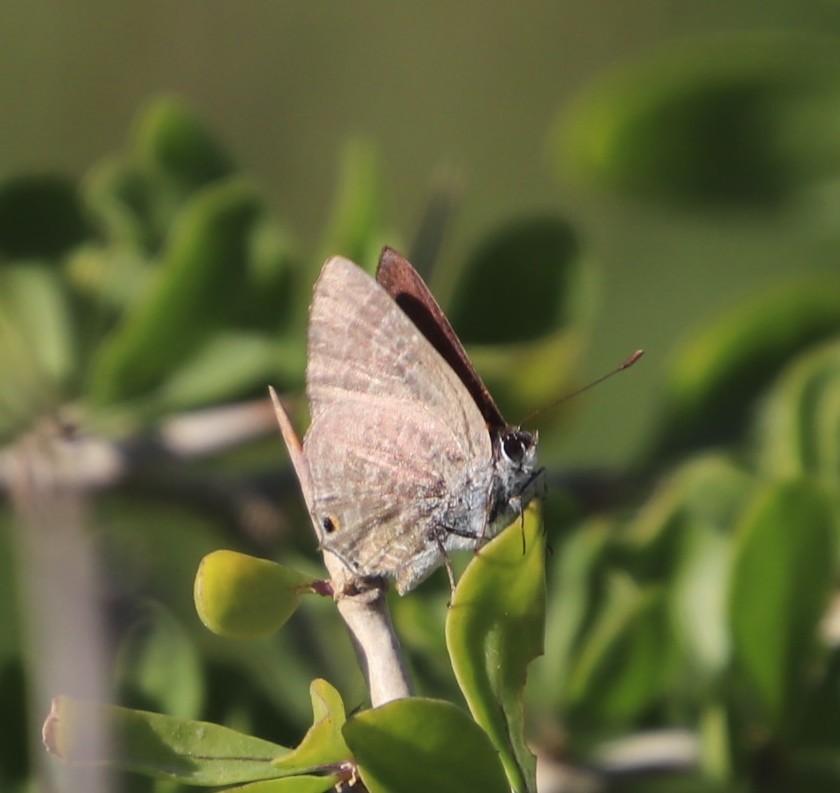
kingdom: Animalia
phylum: Arthropoda
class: Insecta
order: Lepidoptera
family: Lycaenidae
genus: Anthene
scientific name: Anthene definita
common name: Common ciliate blue
